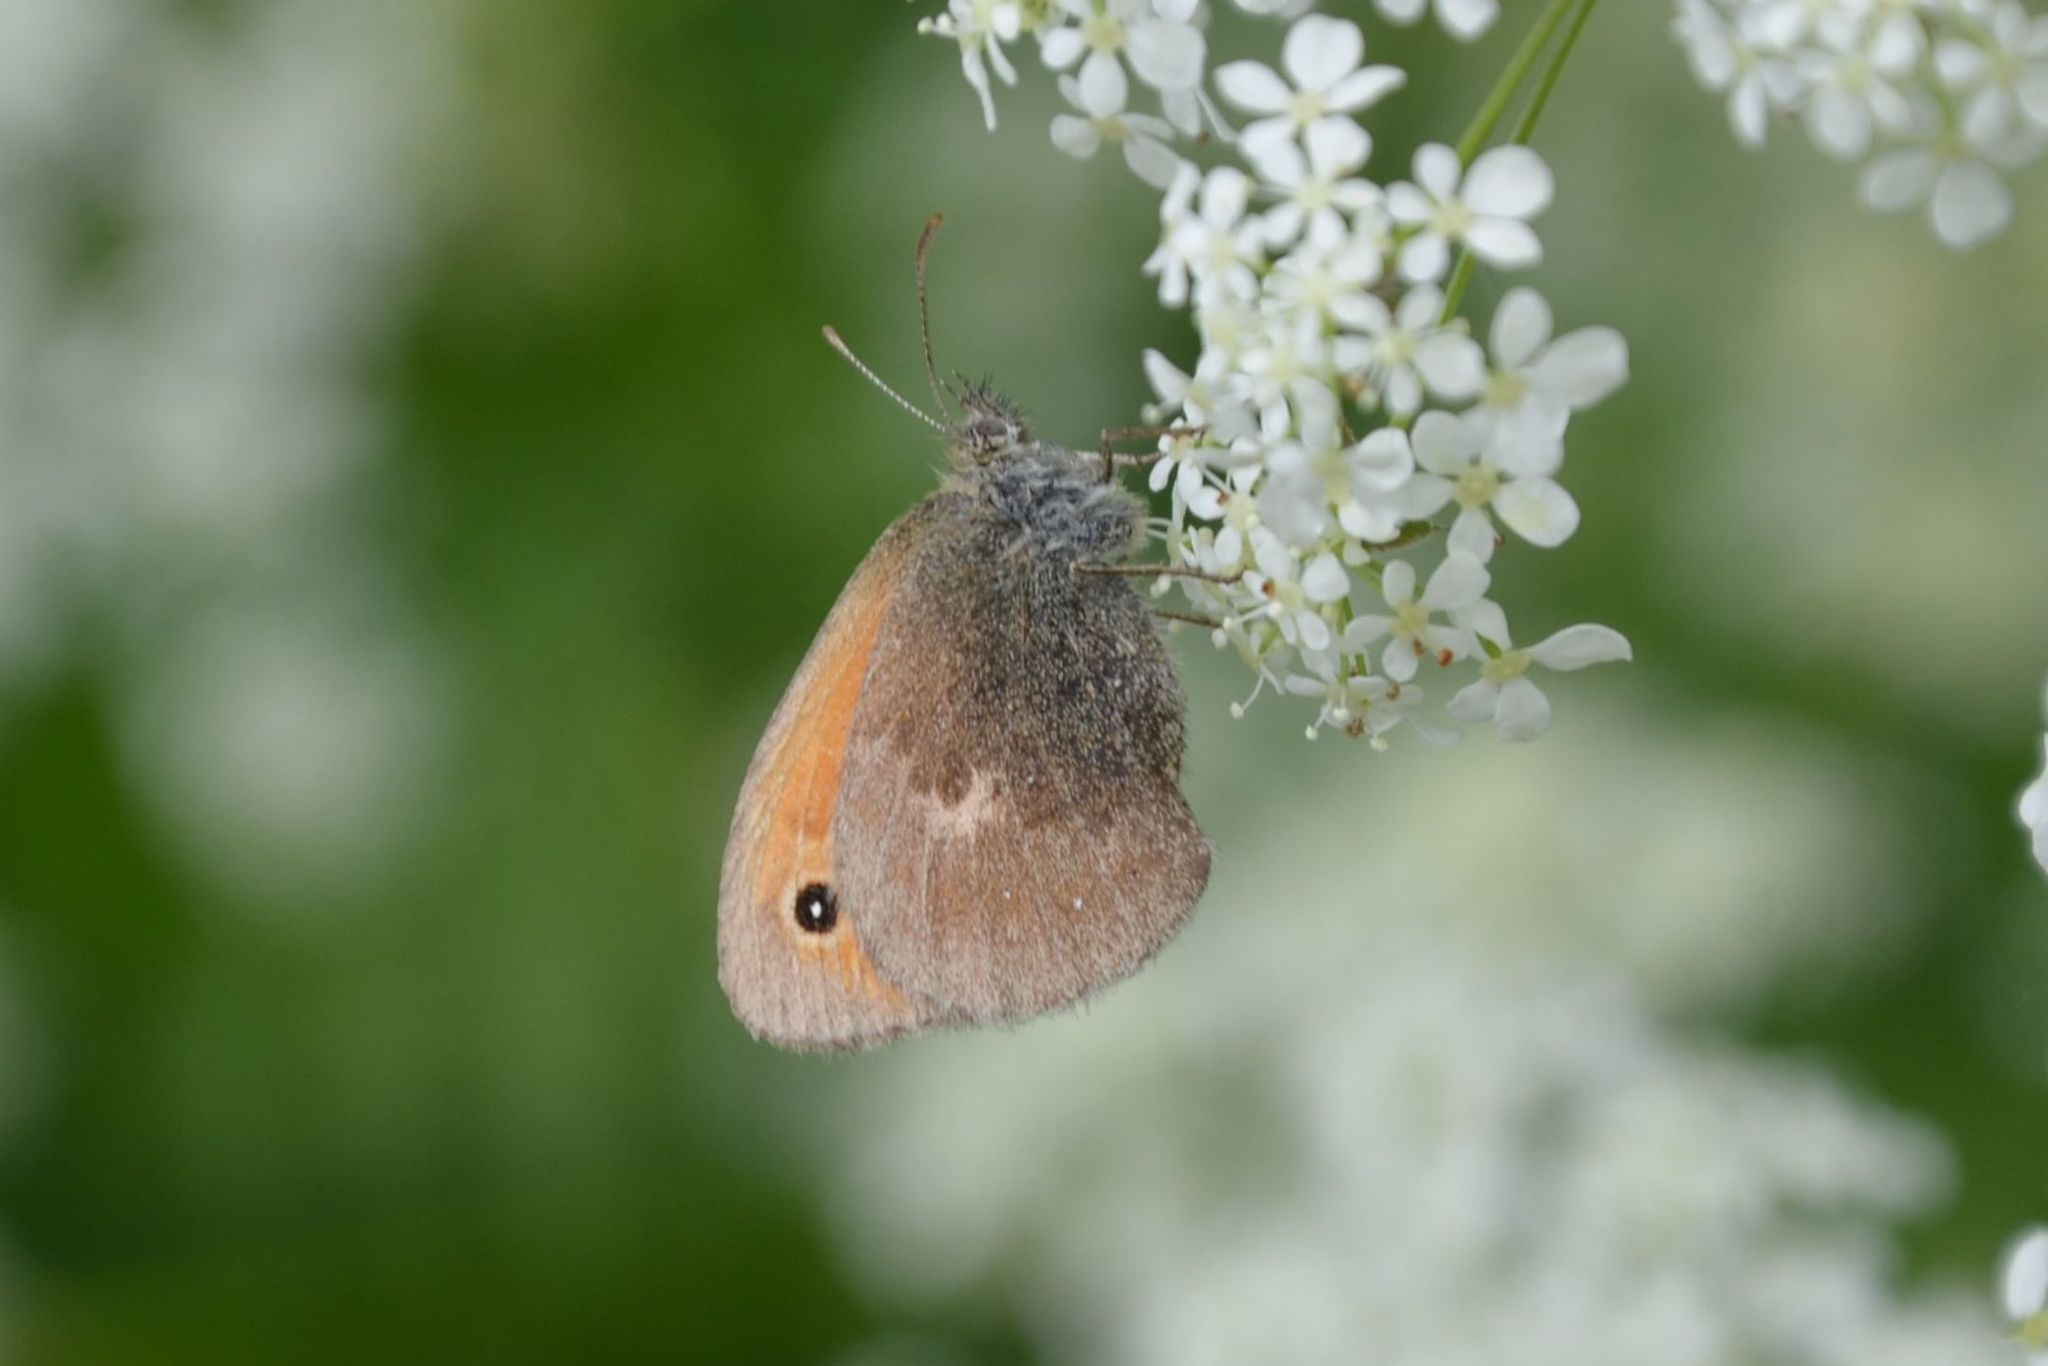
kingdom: Animalia
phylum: Arthropoda
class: Insecta
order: Lepidoptera
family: Nymphalidae
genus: Coenonympha
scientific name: Coenonympha pamphilus
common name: Small heath
